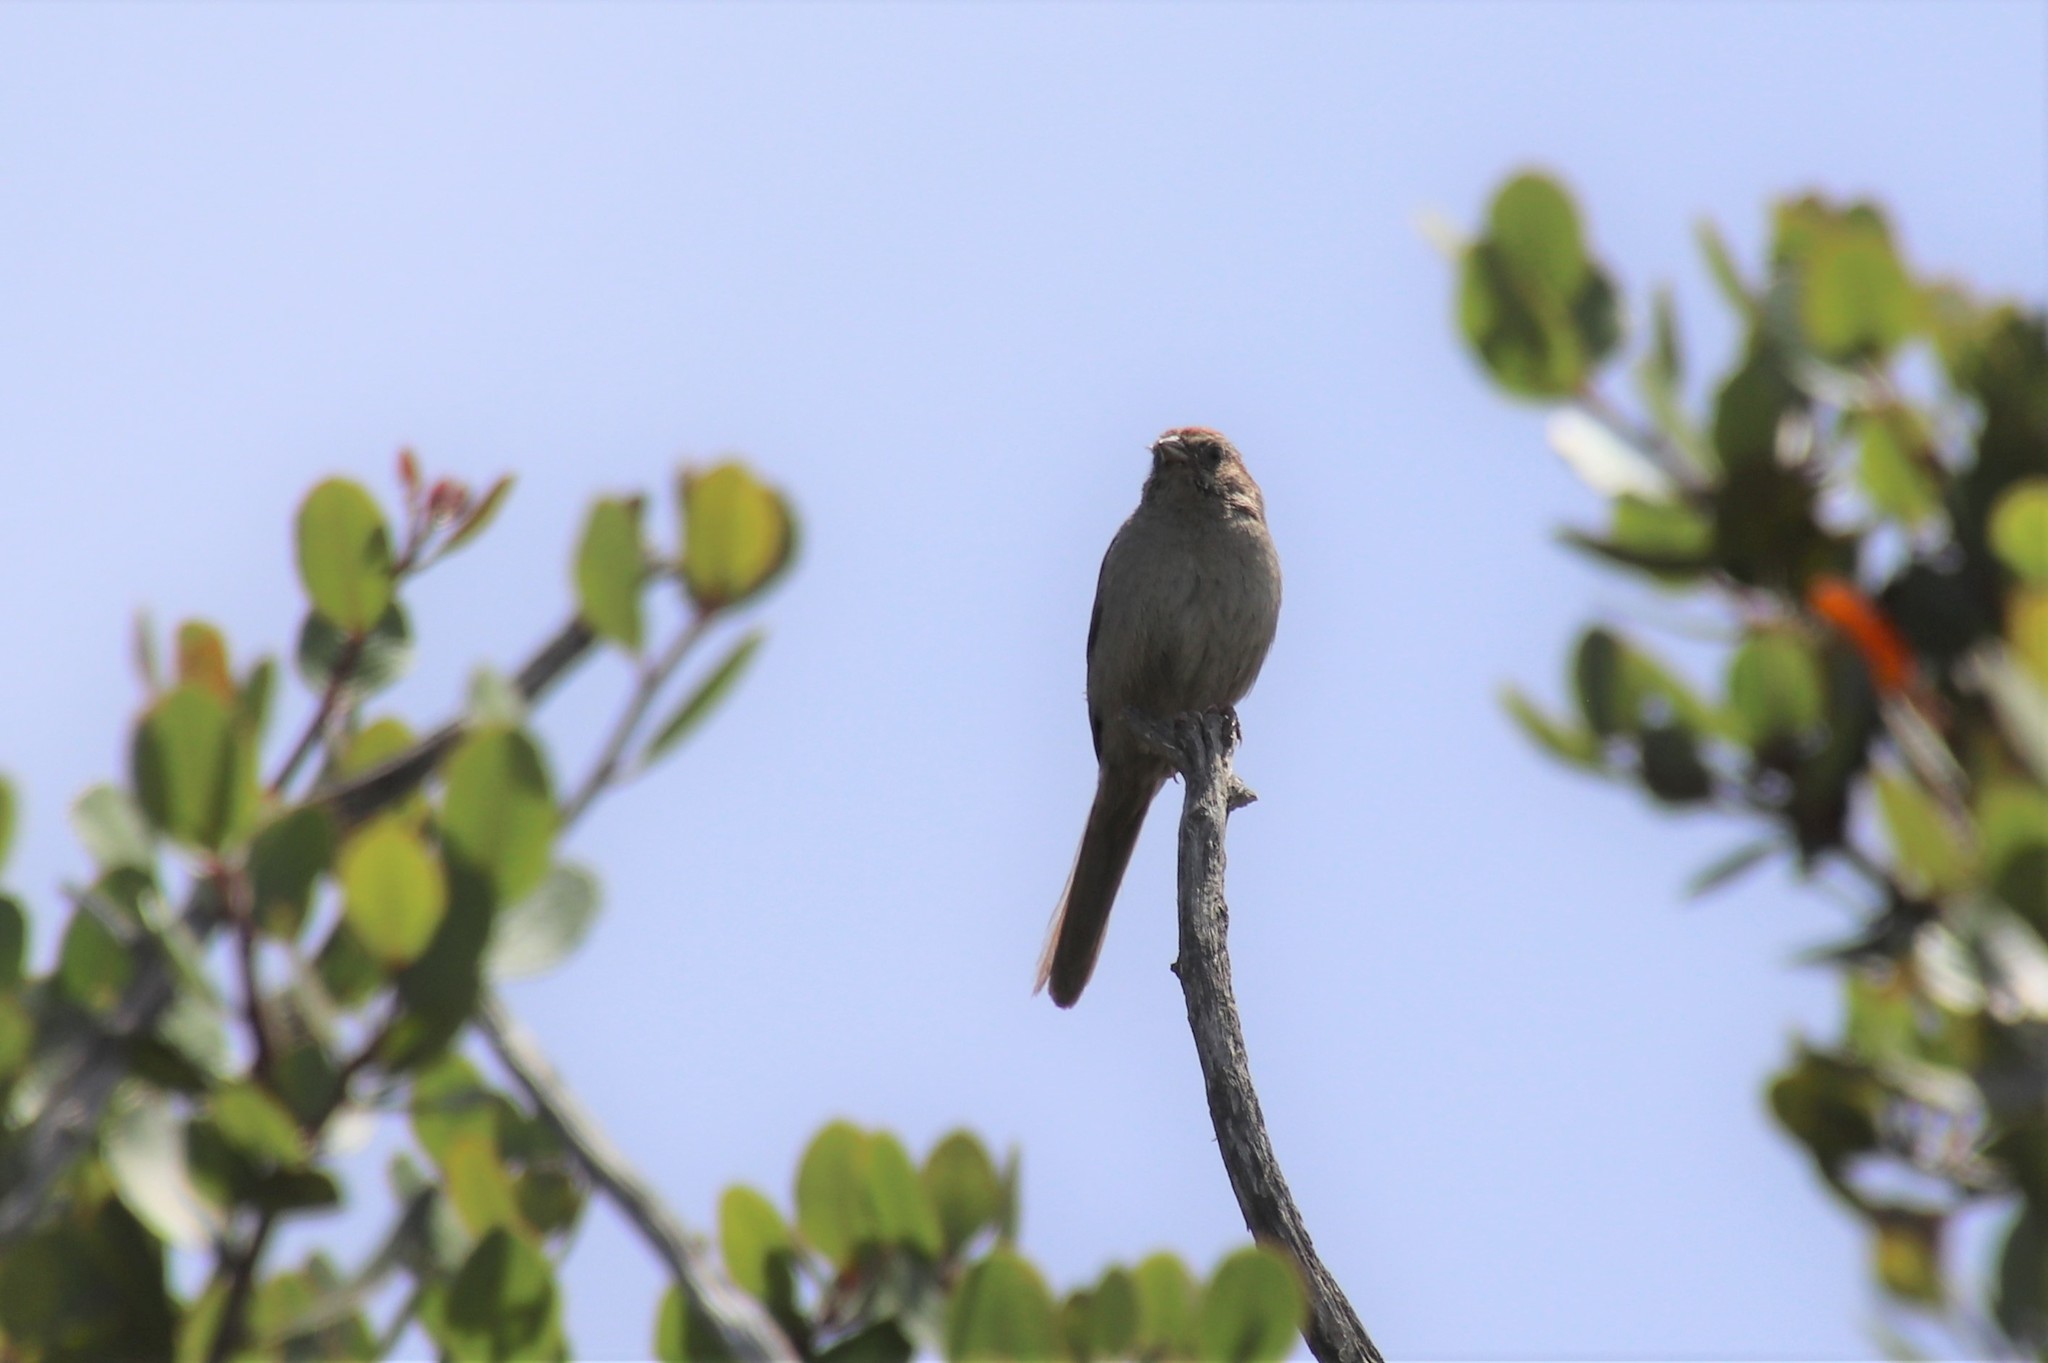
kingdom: Animalia
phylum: Chordata
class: Aves
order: Passeriformes
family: Passerellidae
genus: Aimophila
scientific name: Aimophila ruficeps
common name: Rufous-crowned sparrow
